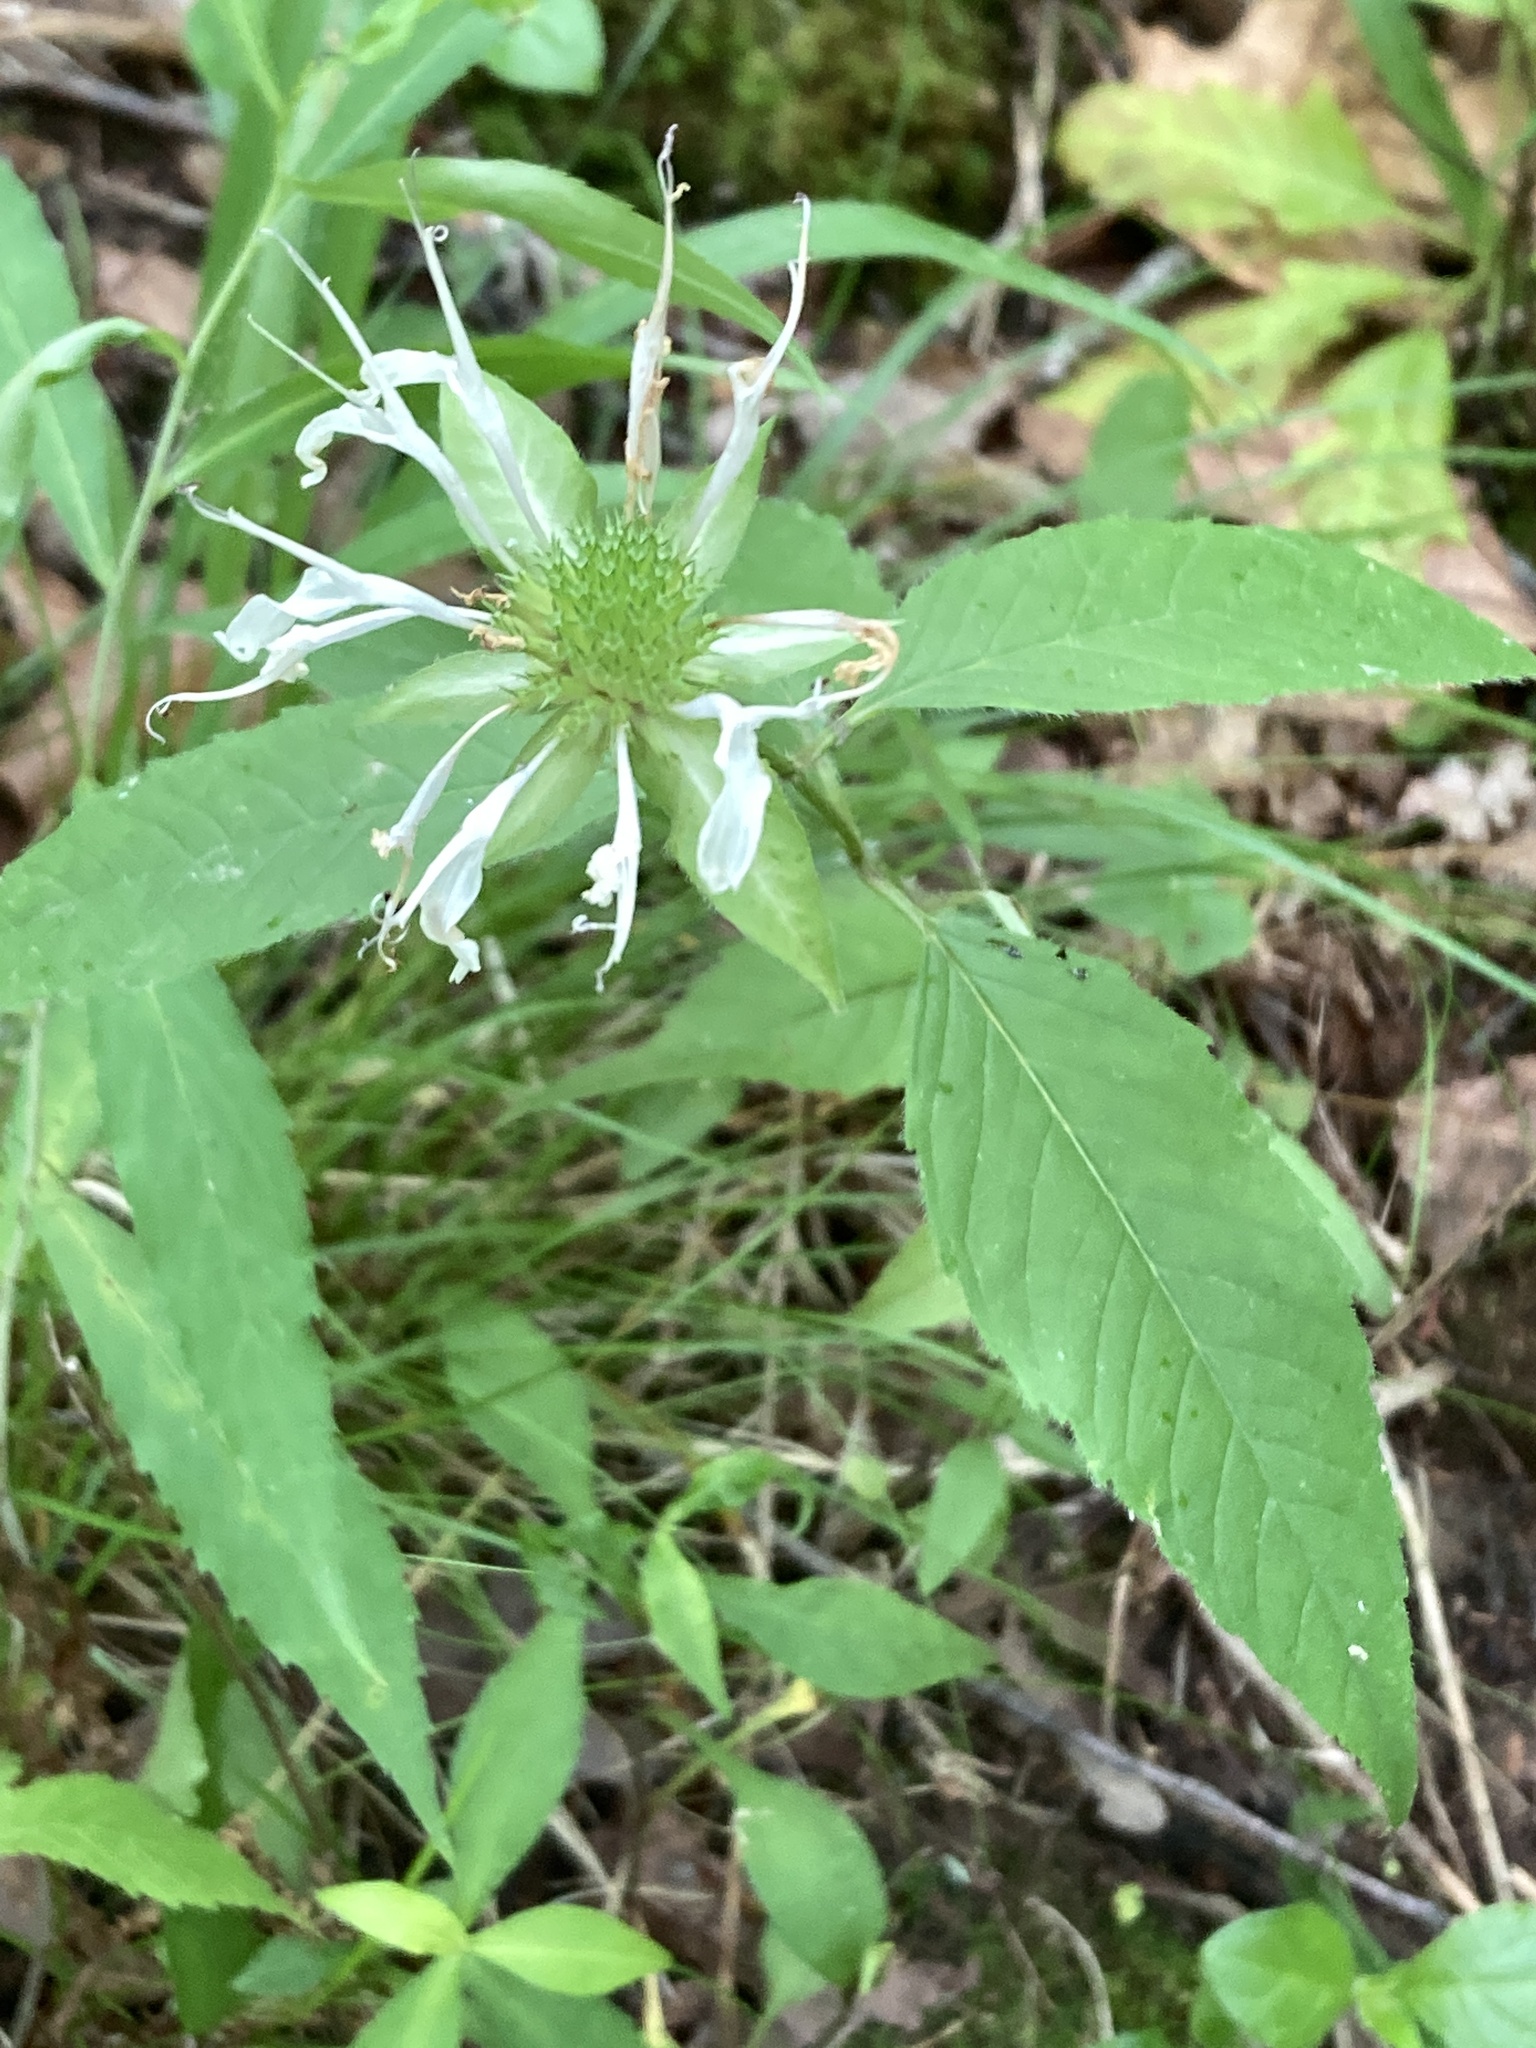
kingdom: Plantae
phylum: Tracheophyta
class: Magnoliopsida
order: Lamiales
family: Lamiaceae
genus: Monarda
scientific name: Monarda clinopodia
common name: Basil beebalm
